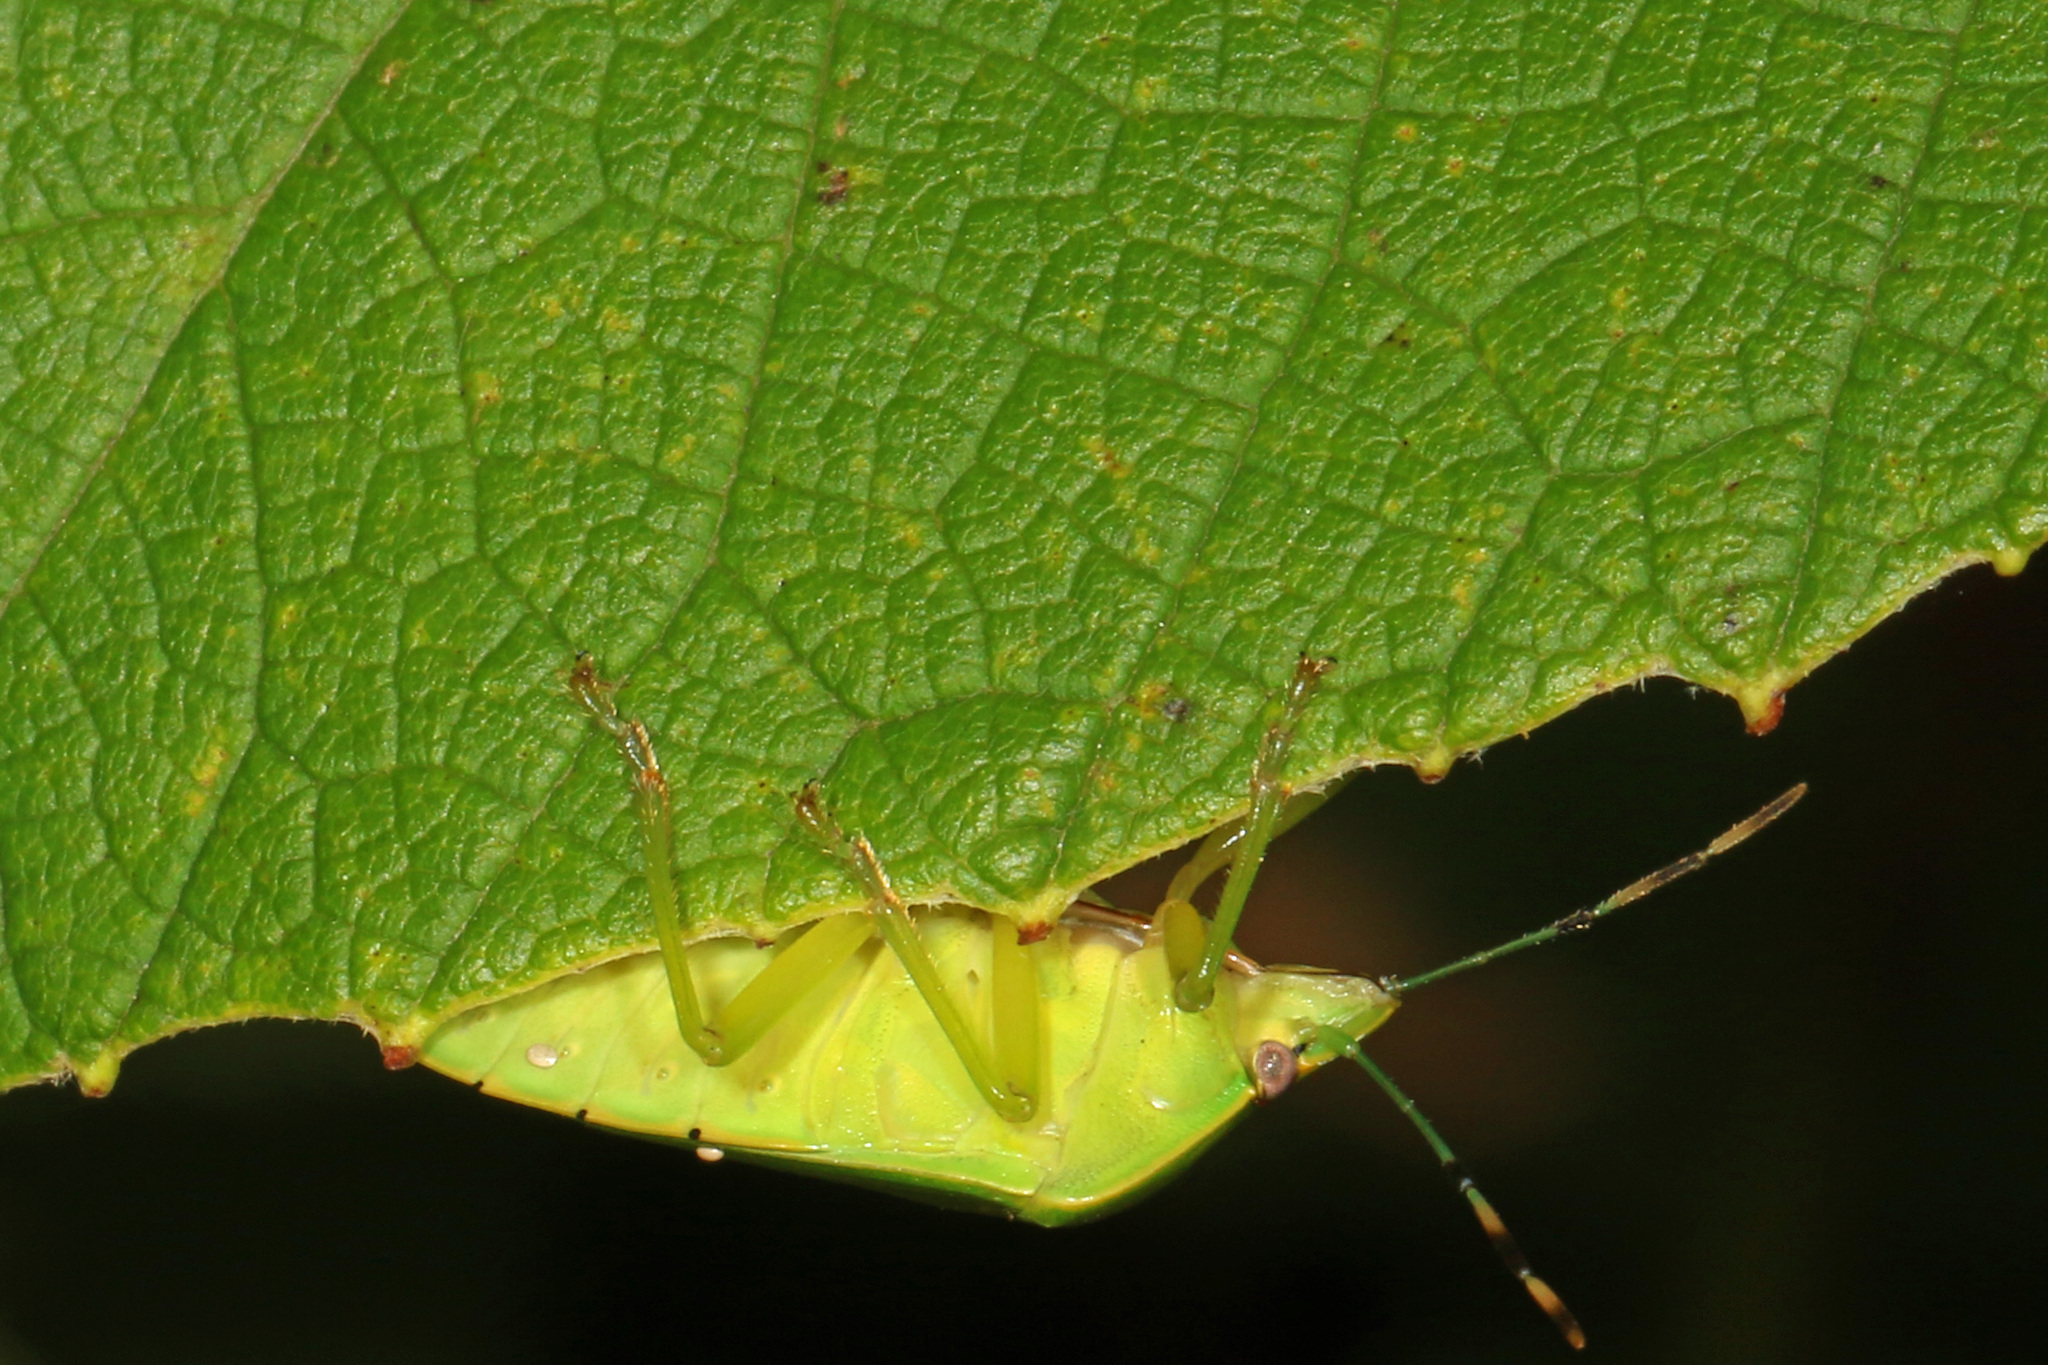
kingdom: Animalia
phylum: Arthropoda
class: Insecta
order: Hemiptera
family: Pentatomidae
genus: Chinavia
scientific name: Chinavia hilaris
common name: Green stink bug
